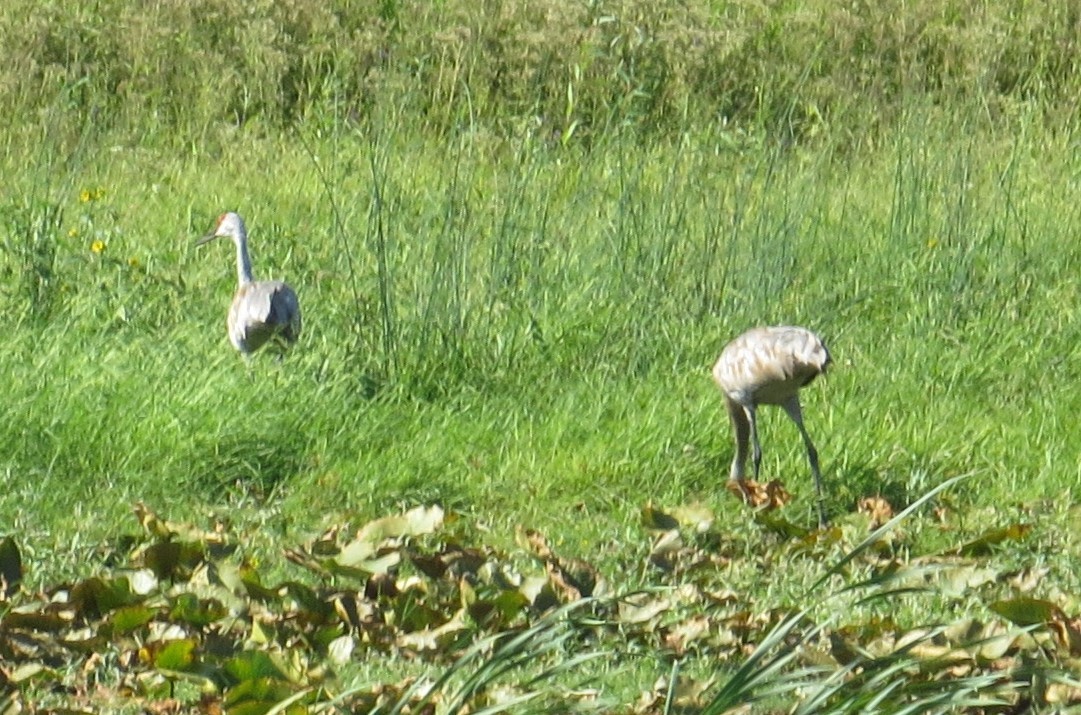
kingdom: Animalia
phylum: Chordata
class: Aves
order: Gruiformes
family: Gruidae
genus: Grus
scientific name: Grus canadensis
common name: Sandhill crane
